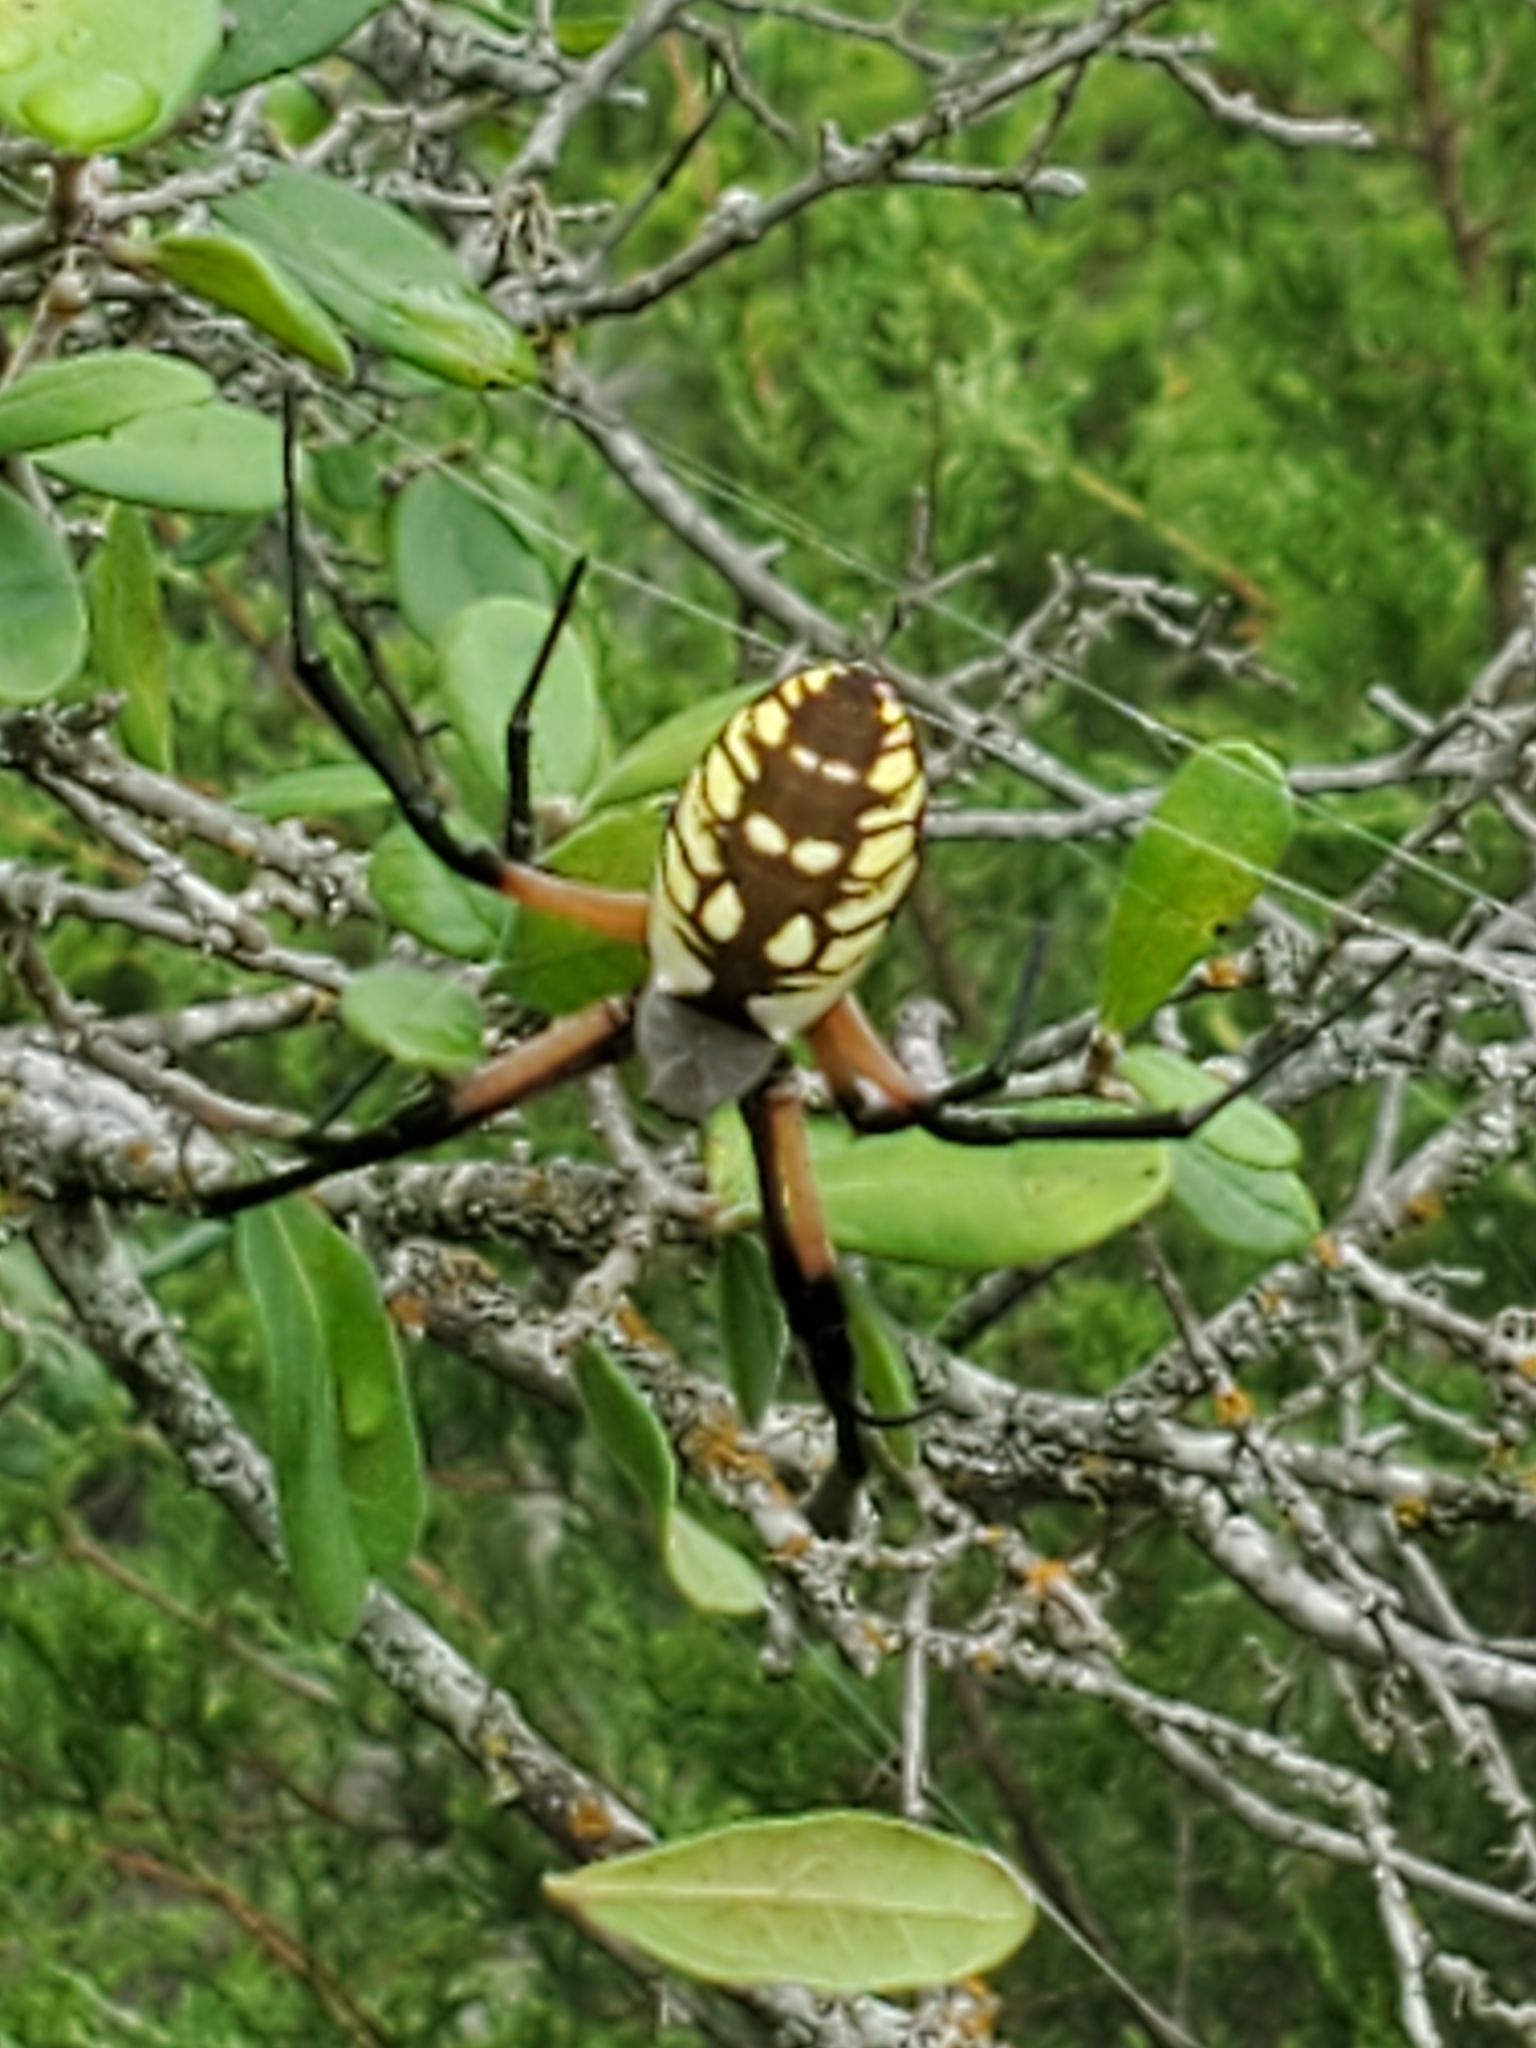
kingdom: Animalia
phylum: Arthropoda
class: Arachnida
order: Araneae
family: Araneidae
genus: Argiope
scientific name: Argiope aurantia
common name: Orb weavers
